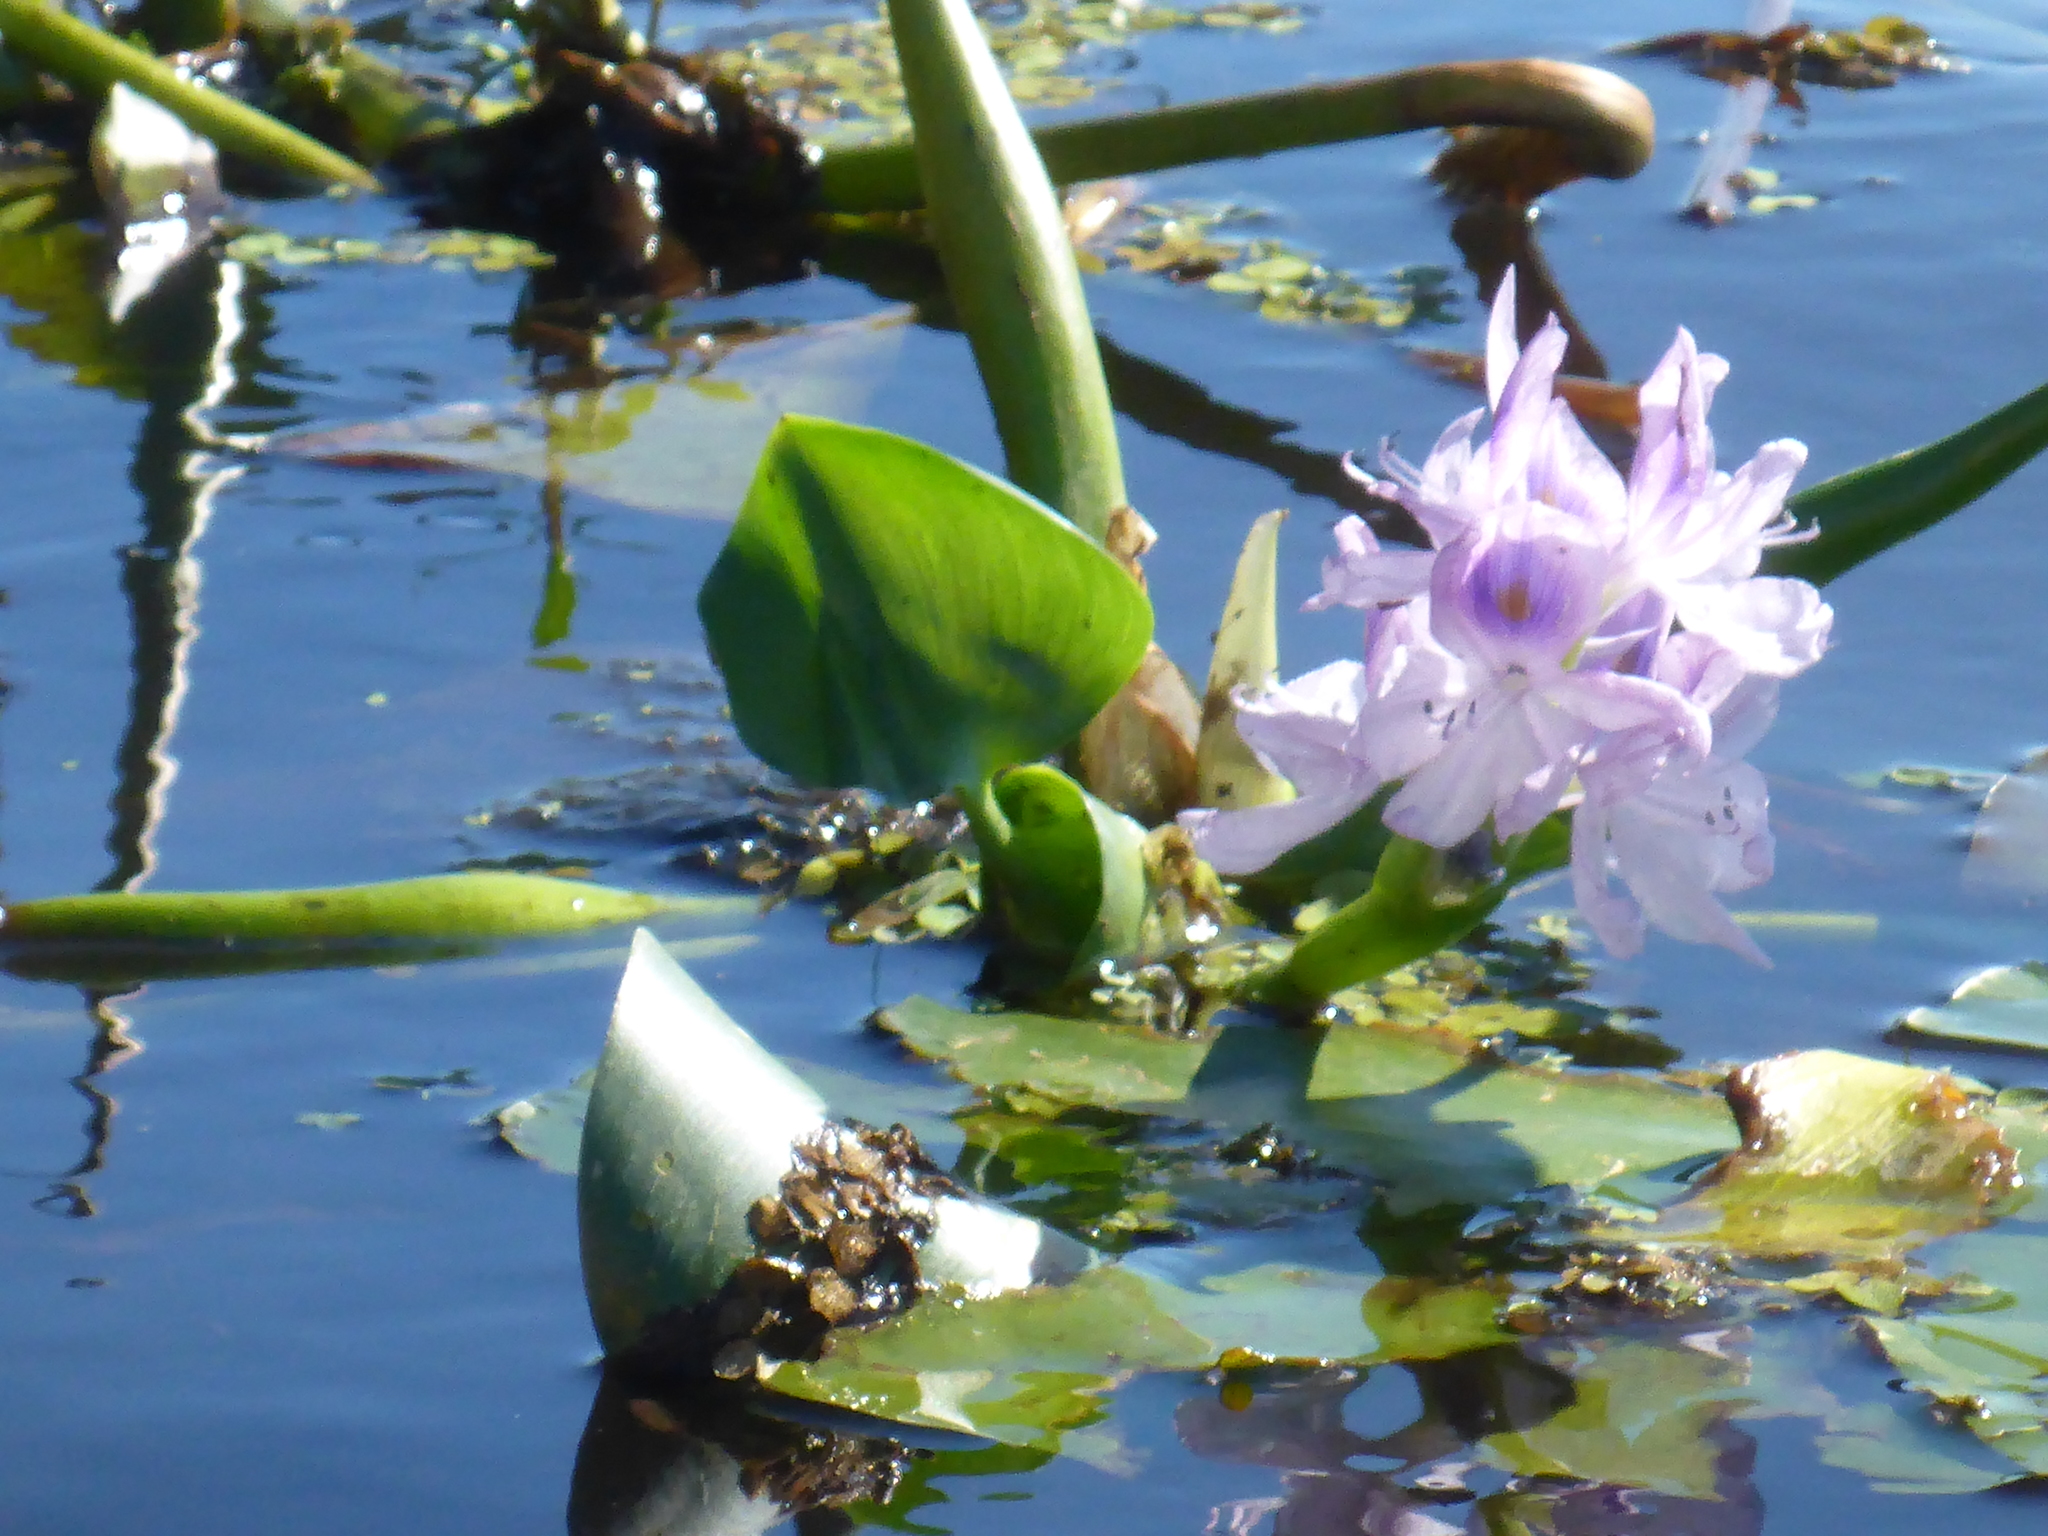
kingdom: Plantae
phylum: Tracheophyta
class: Liliopsida
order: Commelinales
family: Pontederiaceae
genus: Pontederia
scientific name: Pontederia crassipes
